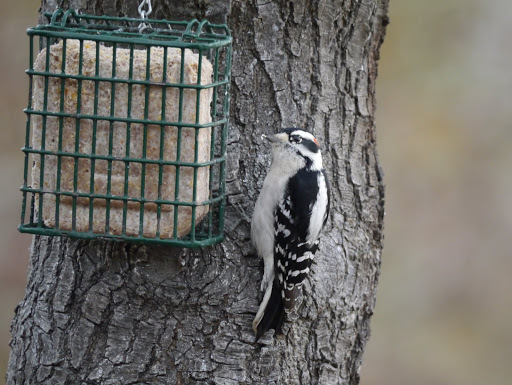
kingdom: Animalia
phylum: Chordata
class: Aves
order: Piciformes
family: Picidae
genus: Dryobates
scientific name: Dryobates pubescens
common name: Downy woodpecker
